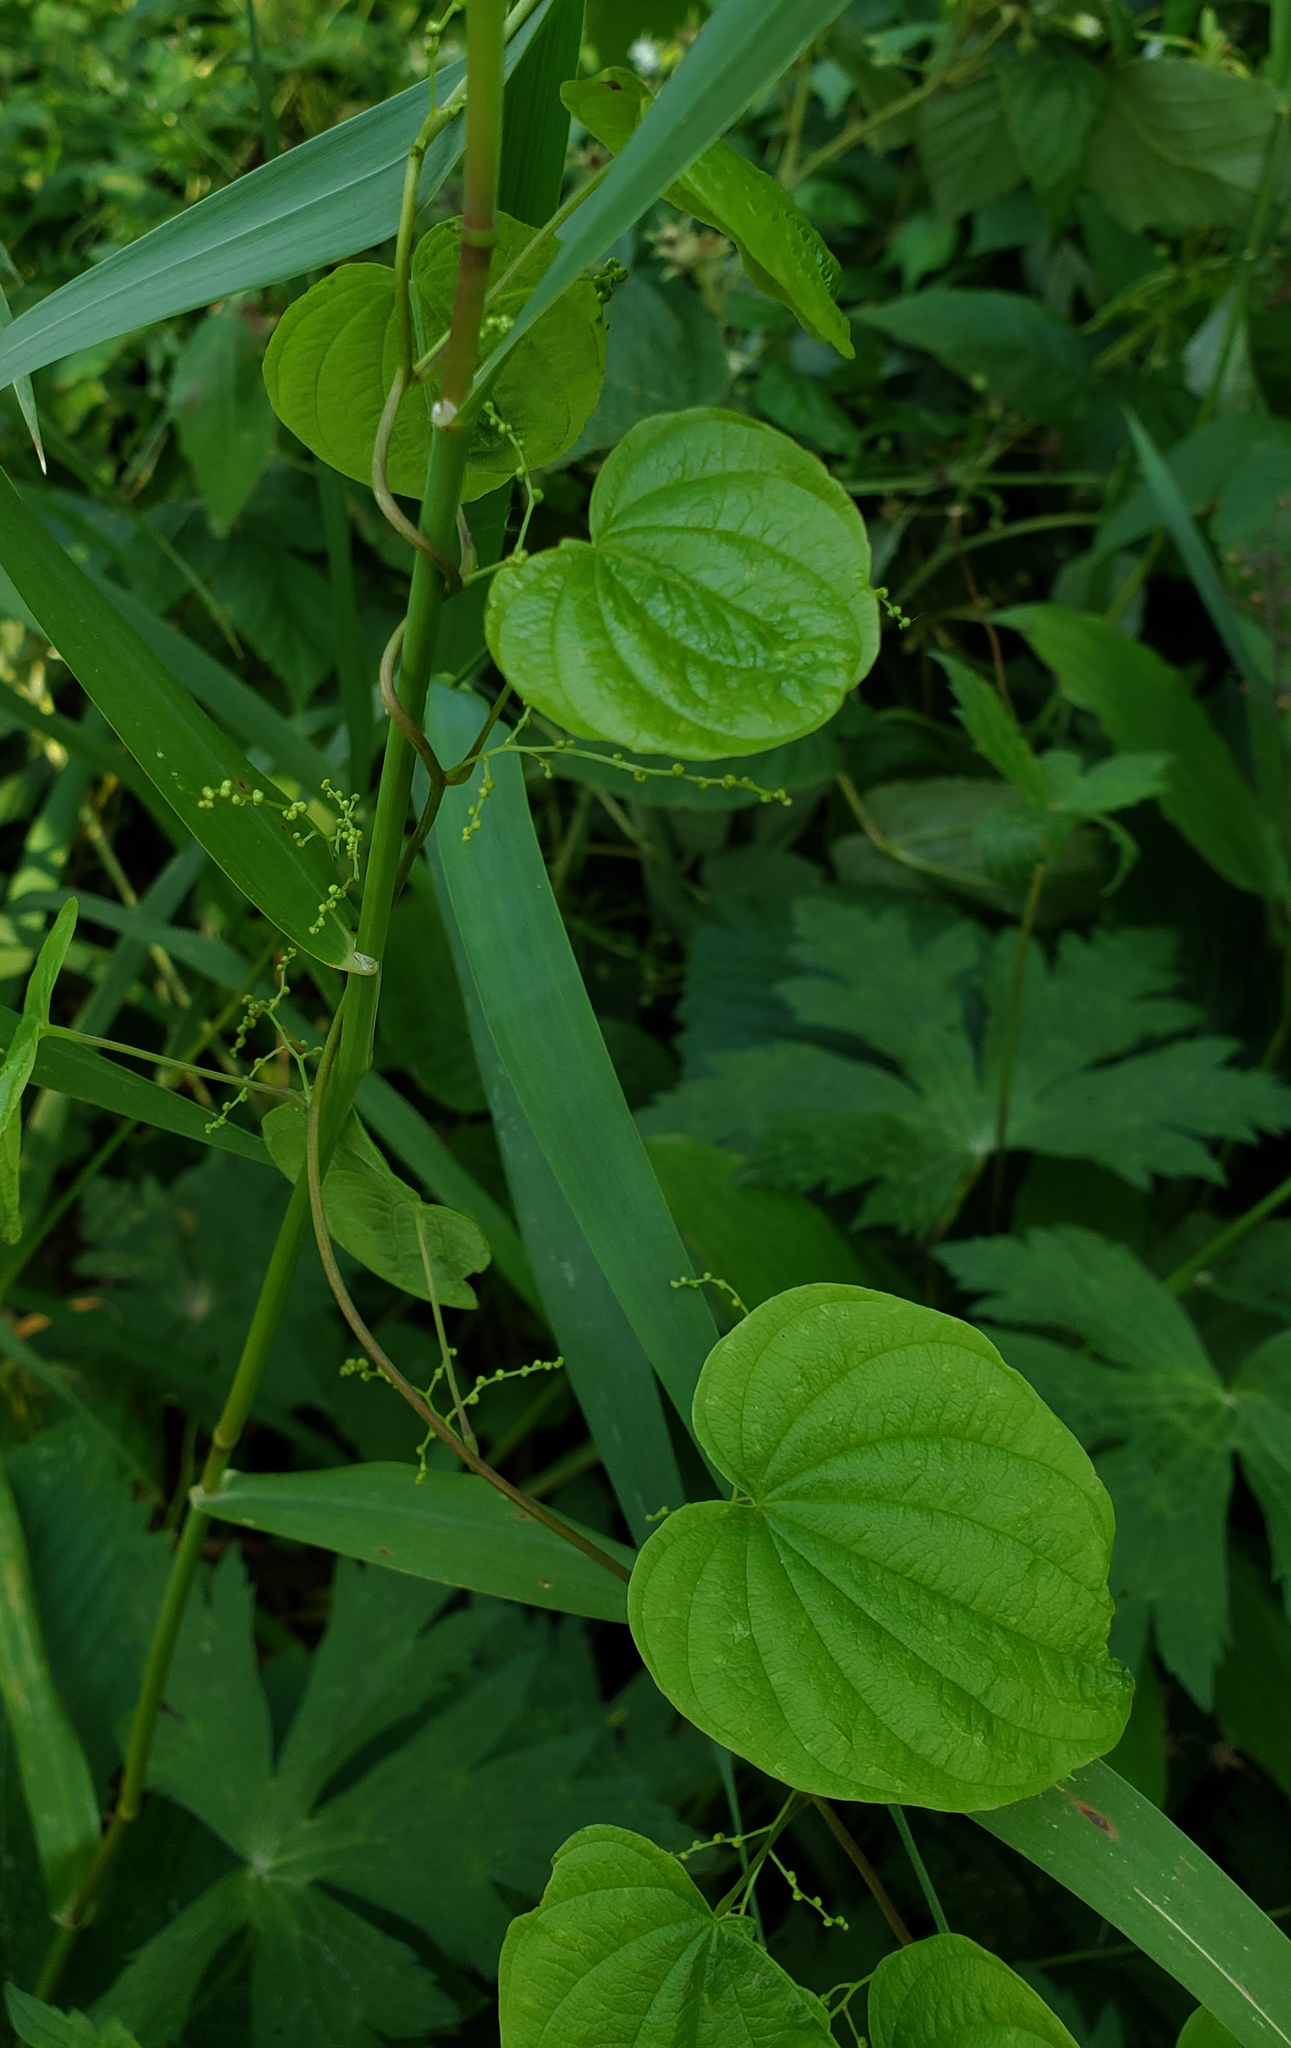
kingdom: Plantae
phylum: Tracheophyta
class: Liliopsida
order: Dioscoreales
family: Dioscoreaceae
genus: Dioscorea
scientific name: Dioscorea villosa
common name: Wild yam
